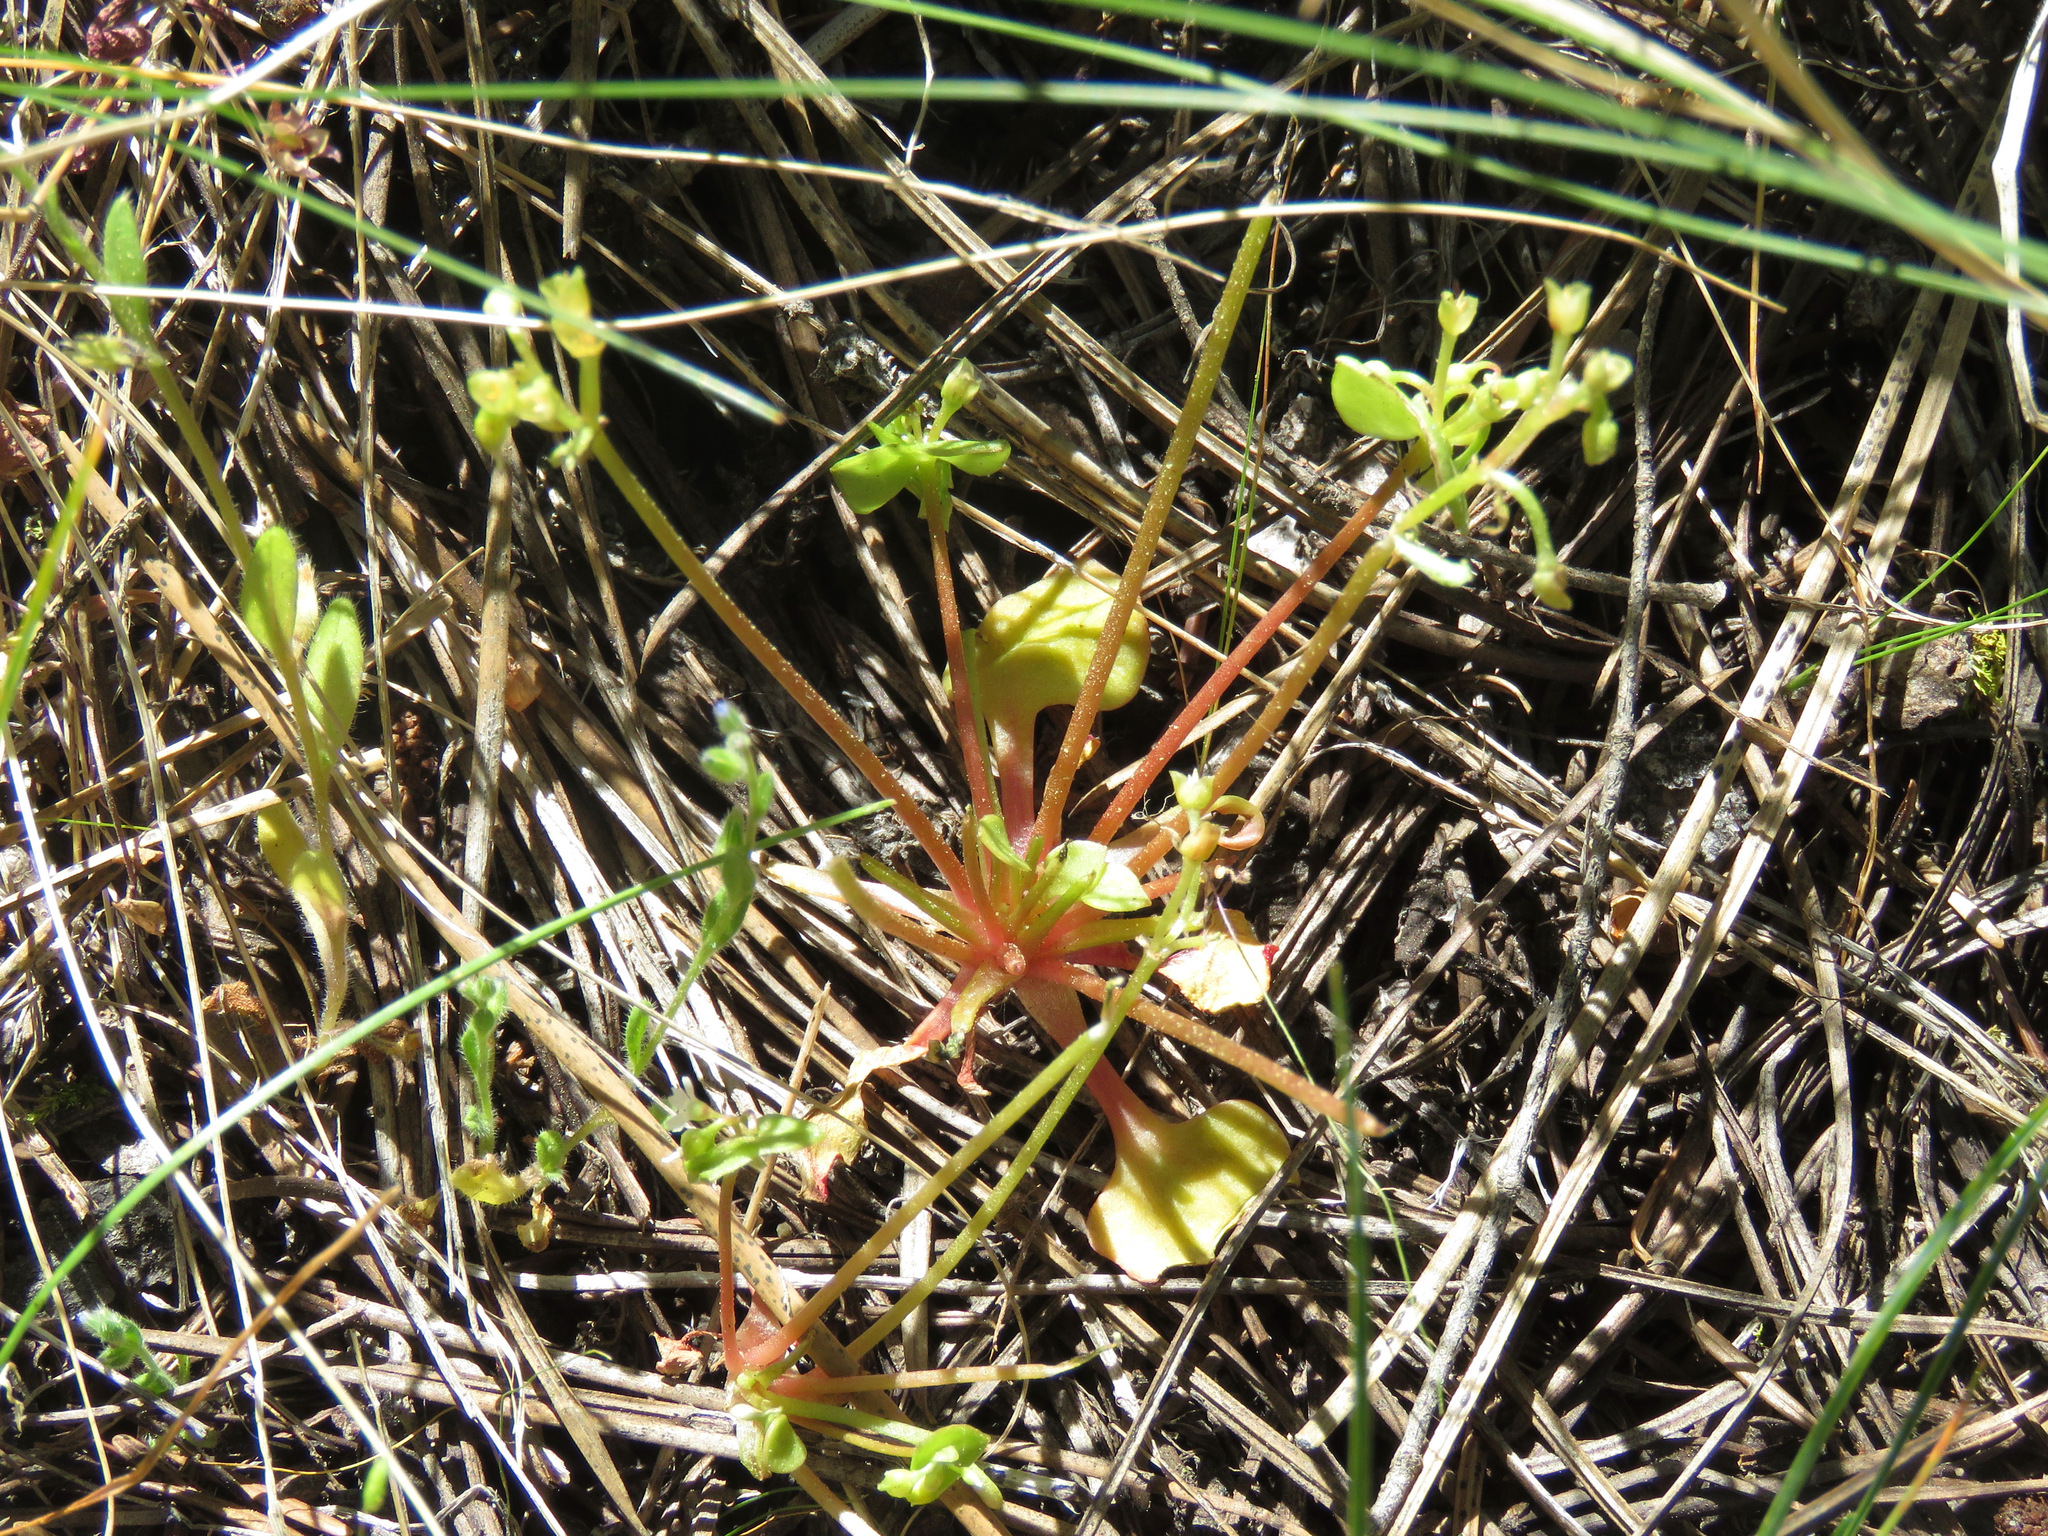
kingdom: Plantae
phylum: Tracheophyta
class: Magnoliopsida
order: Caryophyllales
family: Montiaceae
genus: Claytonia
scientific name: Claytonia rubra
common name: Erubescent miner's-lettuce
